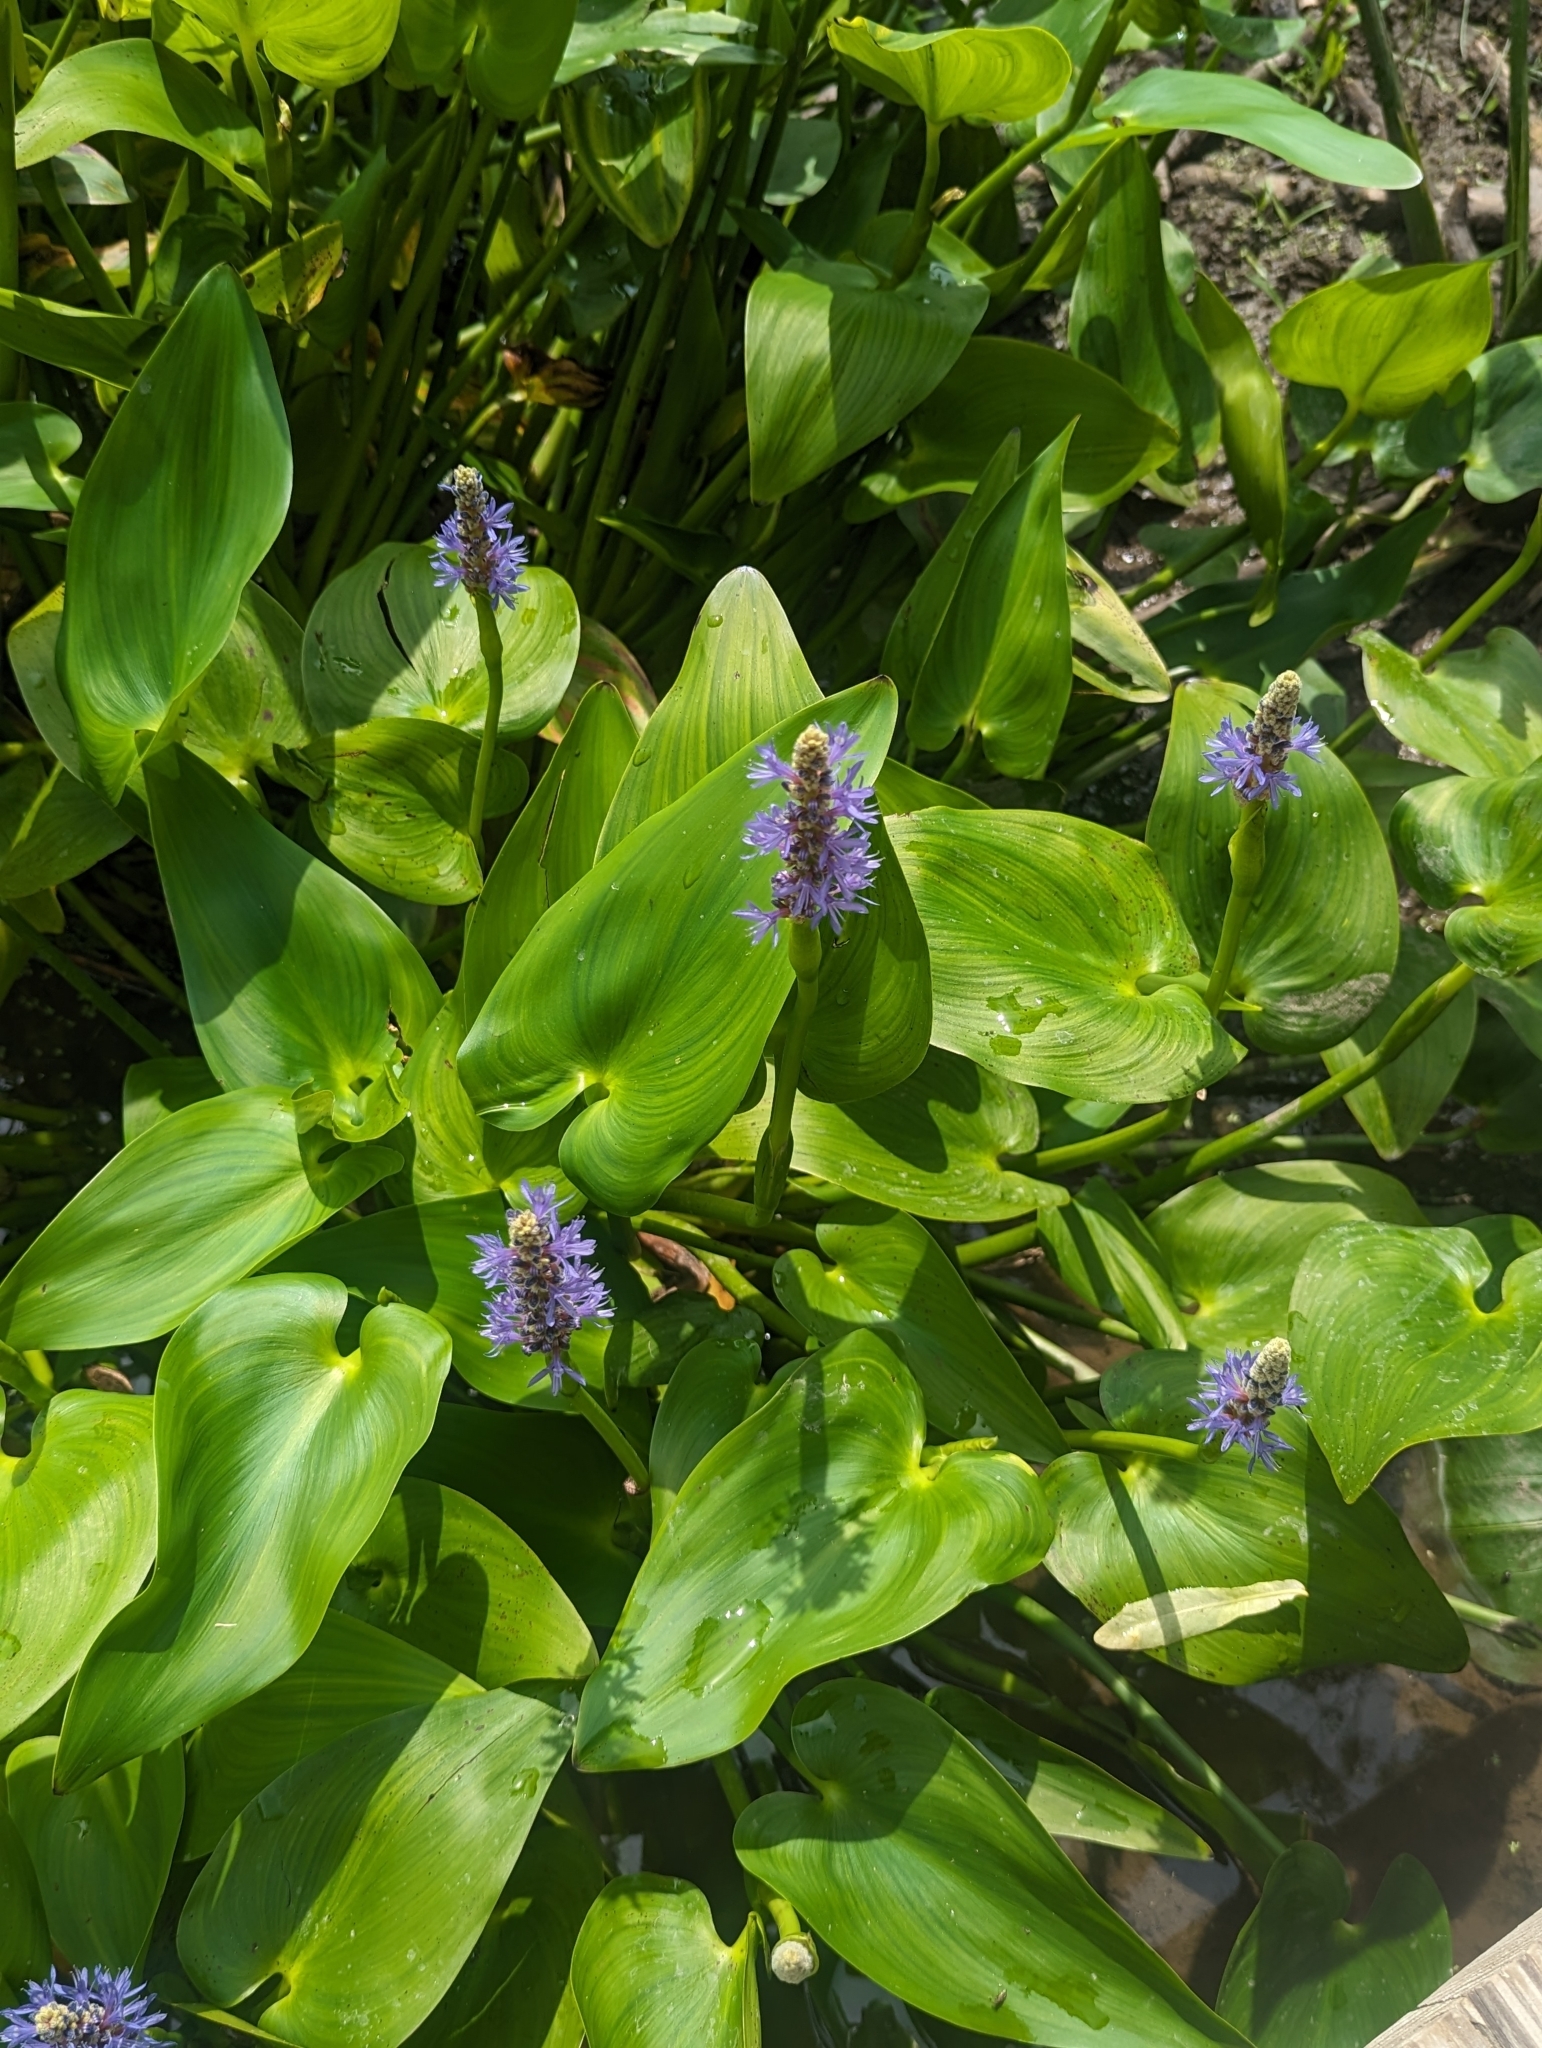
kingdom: Plantae
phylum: Tracheophyta
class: Liliopsida
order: Commelinales
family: Pontederiaceae
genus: Pontederia
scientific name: Pontederia cordata
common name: Pickerelweed
